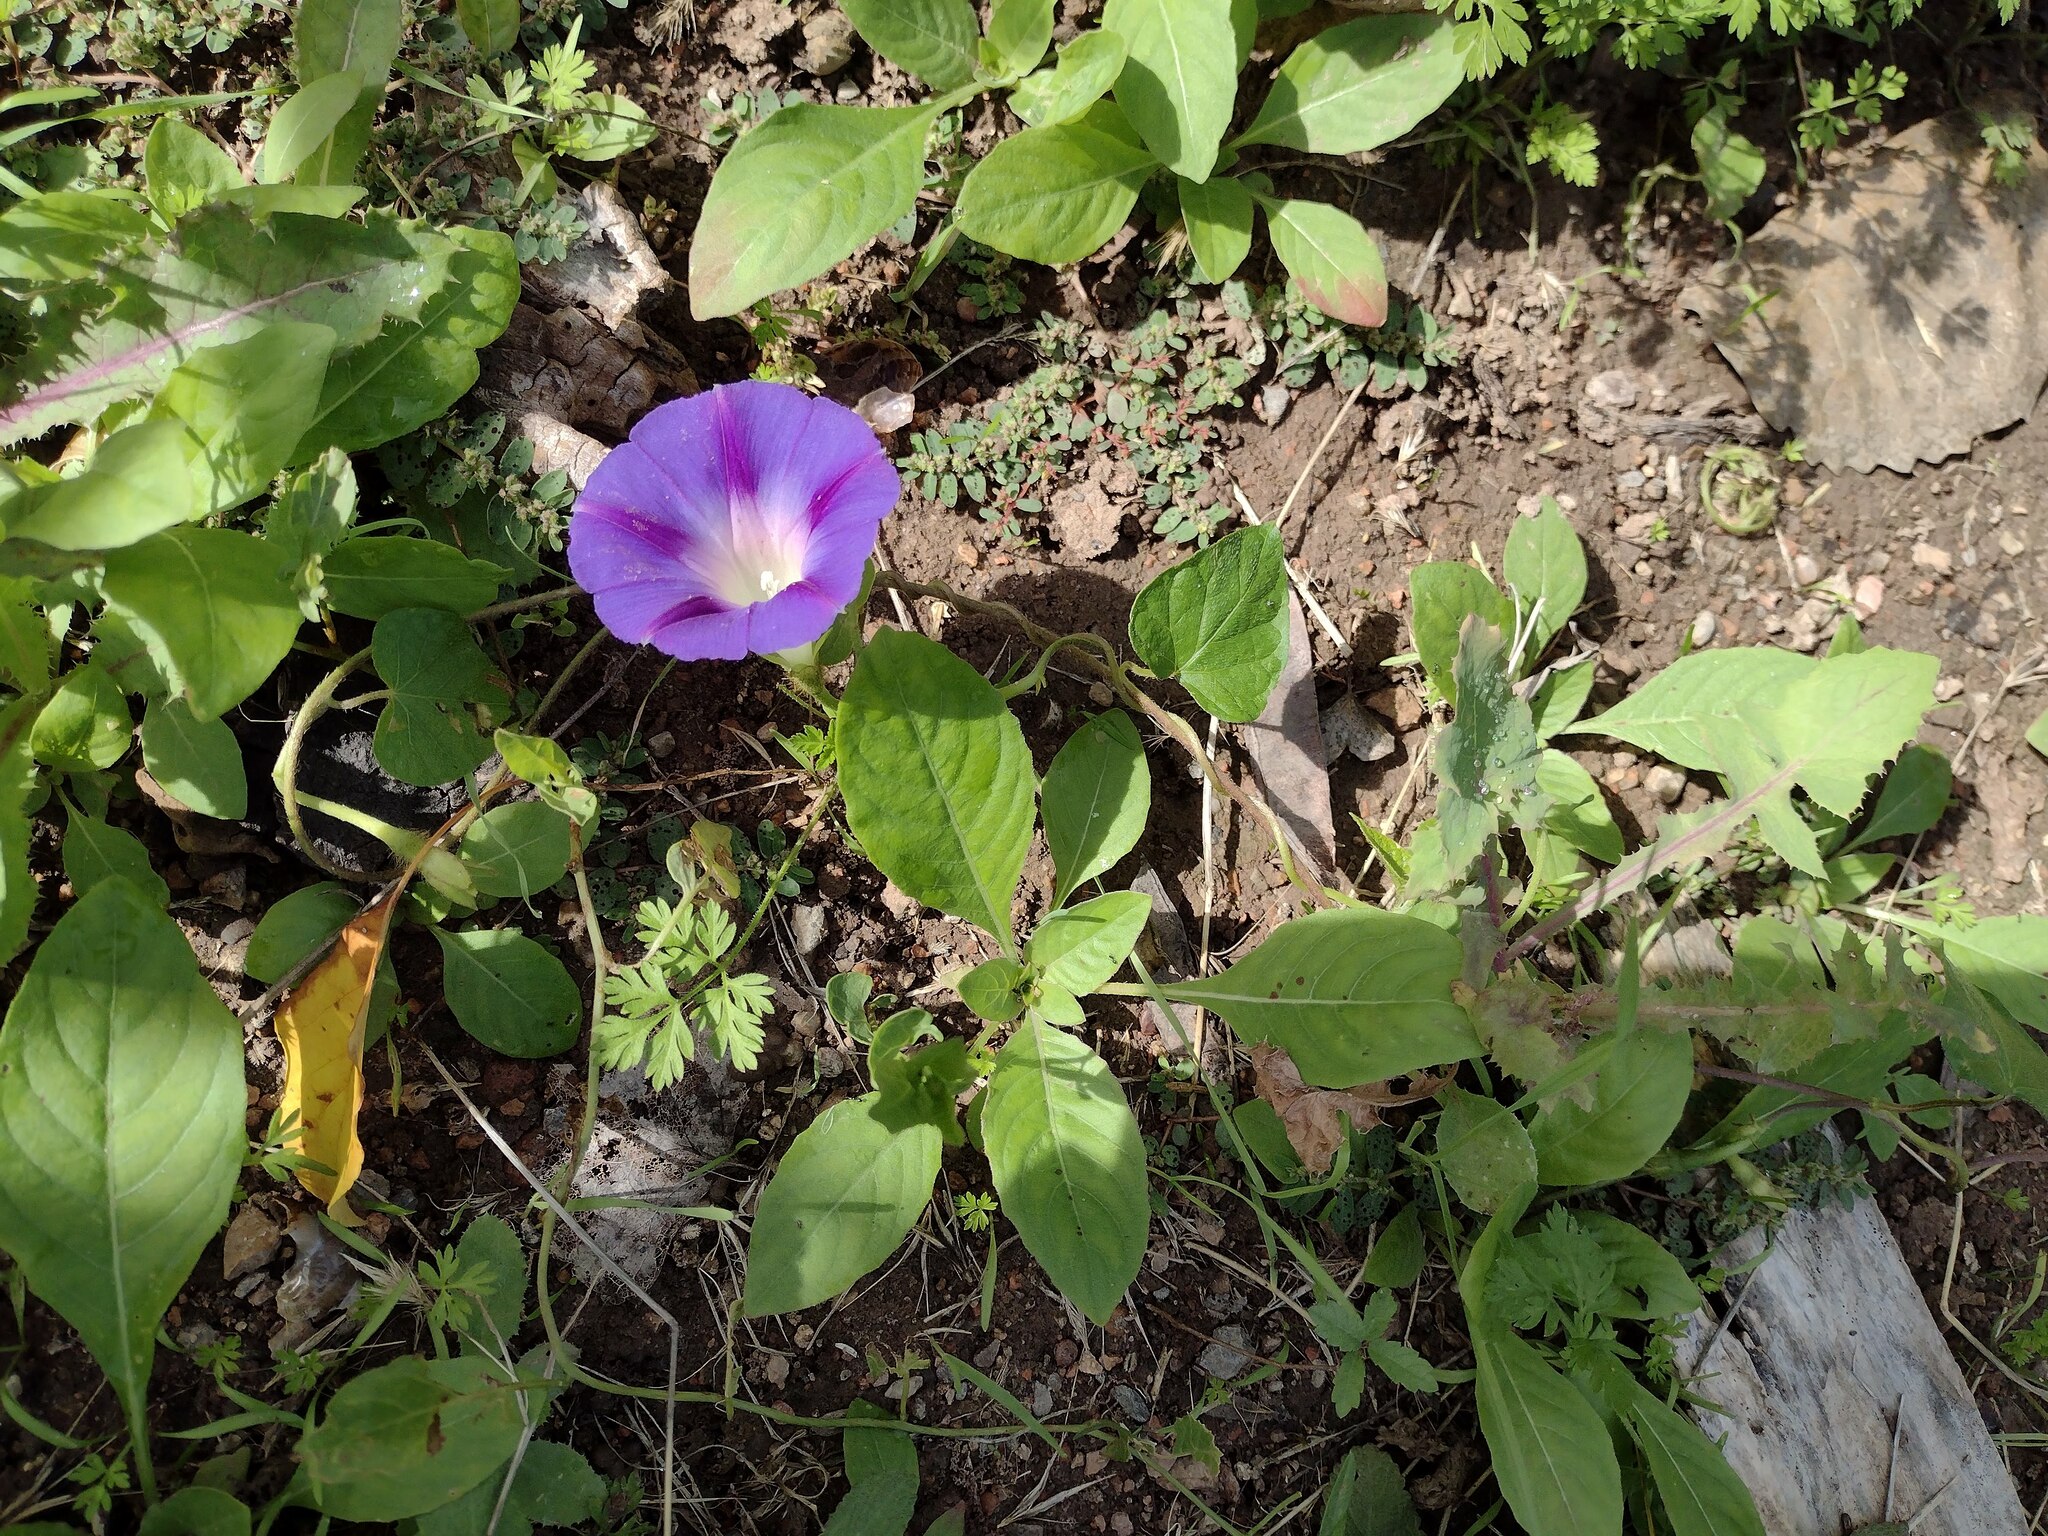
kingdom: Plantae
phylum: Tracheophyta
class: Magnoliopsida
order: Solanales
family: Convolvulaceae
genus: Ipomoea
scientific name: Ipomoea purpurea
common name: Common morning-glory
